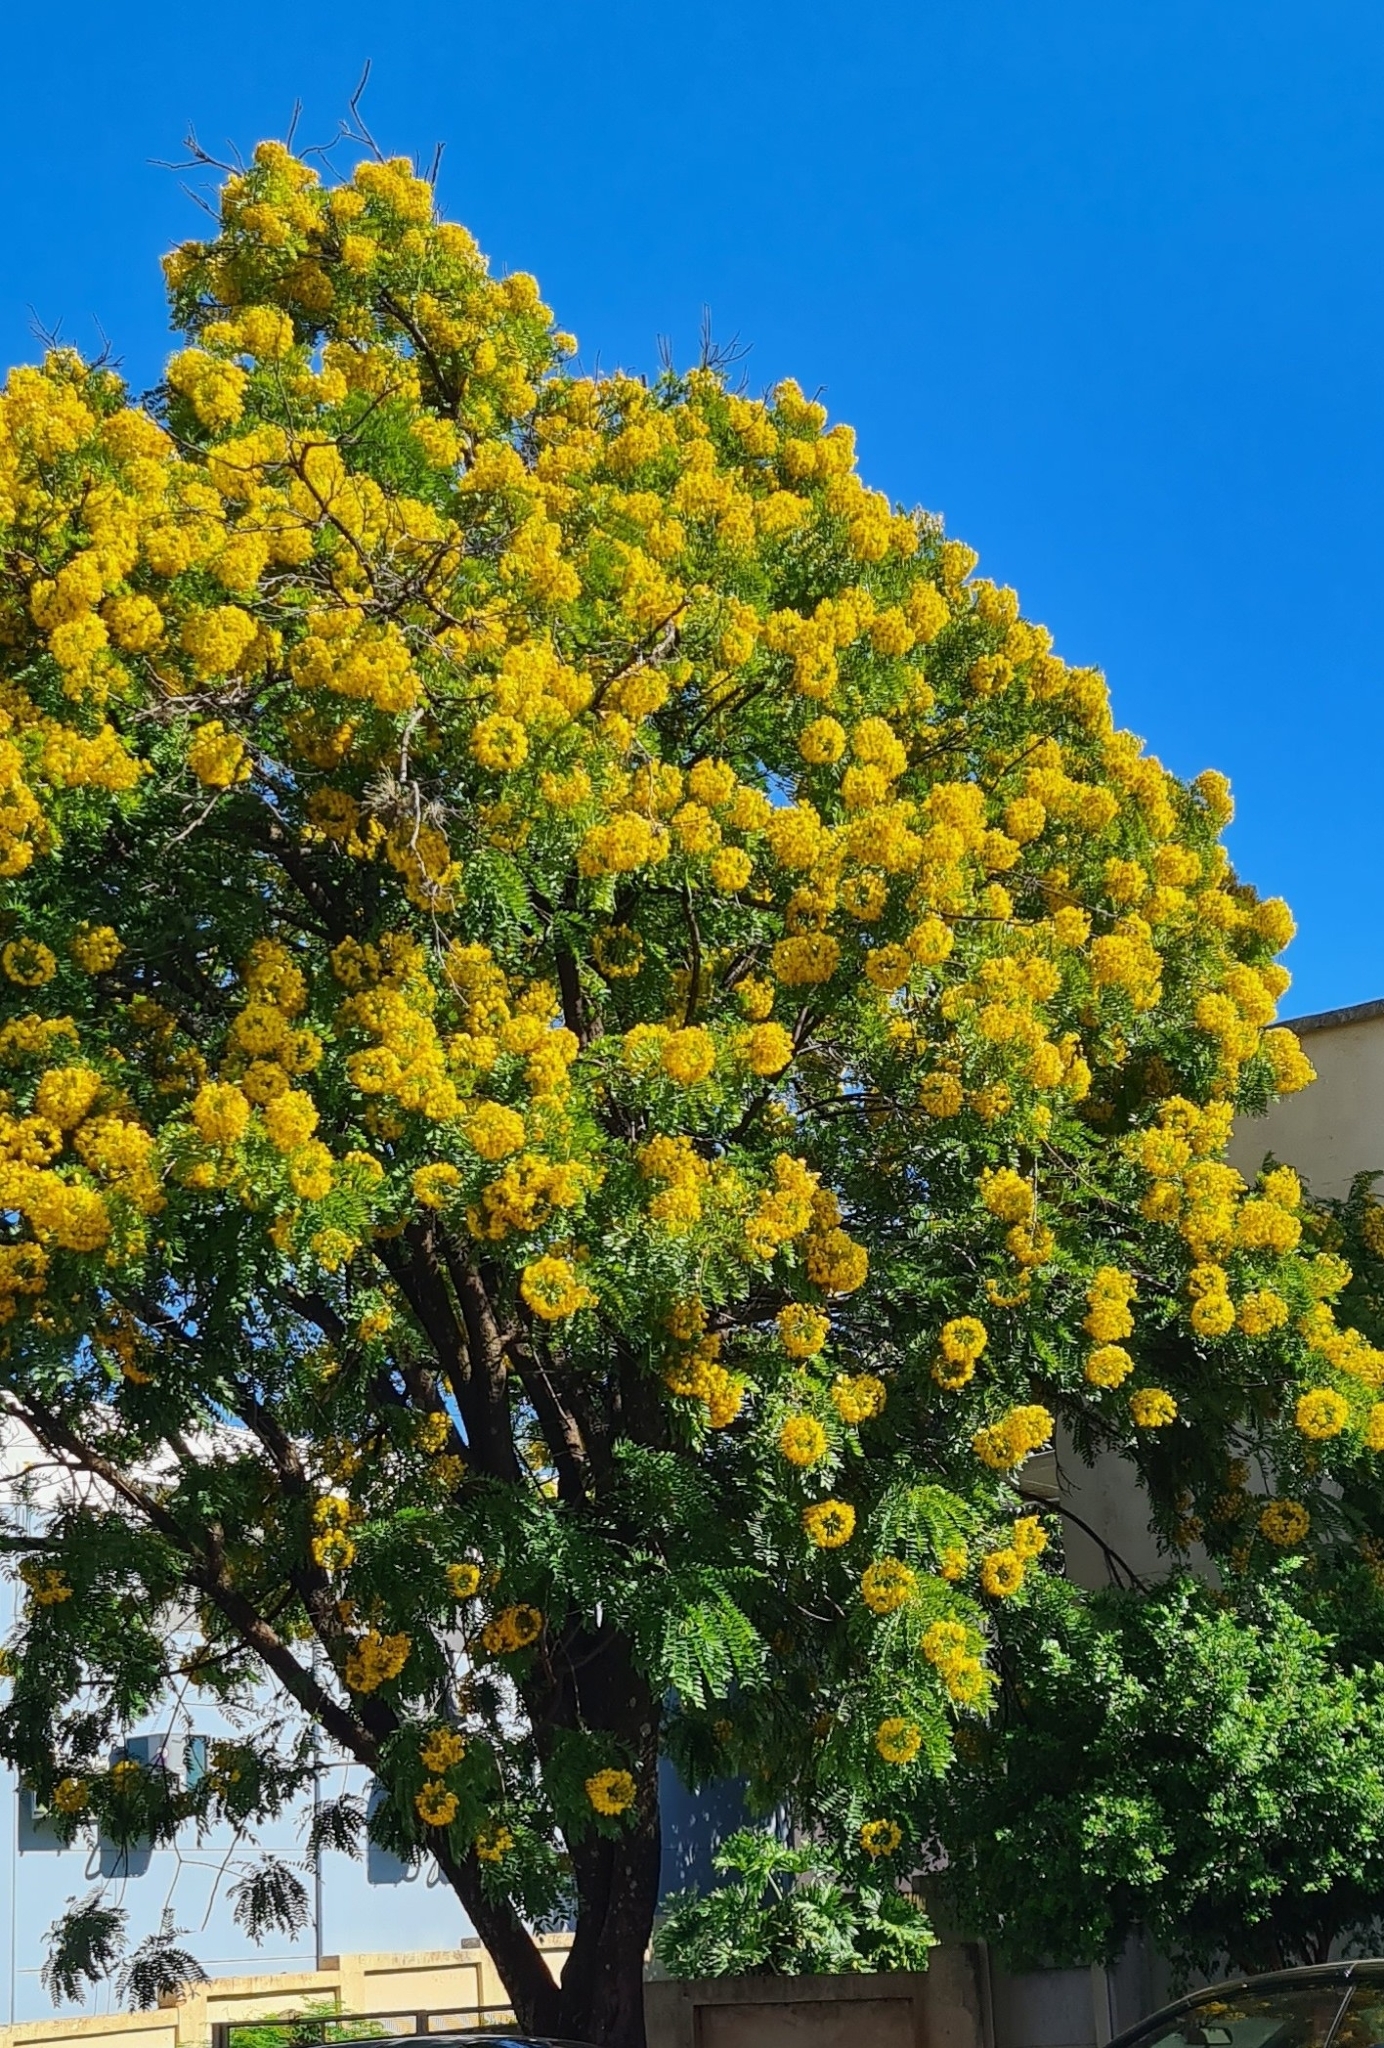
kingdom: Plantae
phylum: Tracheophyta
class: Magnoliopsida
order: Fabales
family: Fabaceae
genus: Cassia
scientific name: Cassia leptophylla
